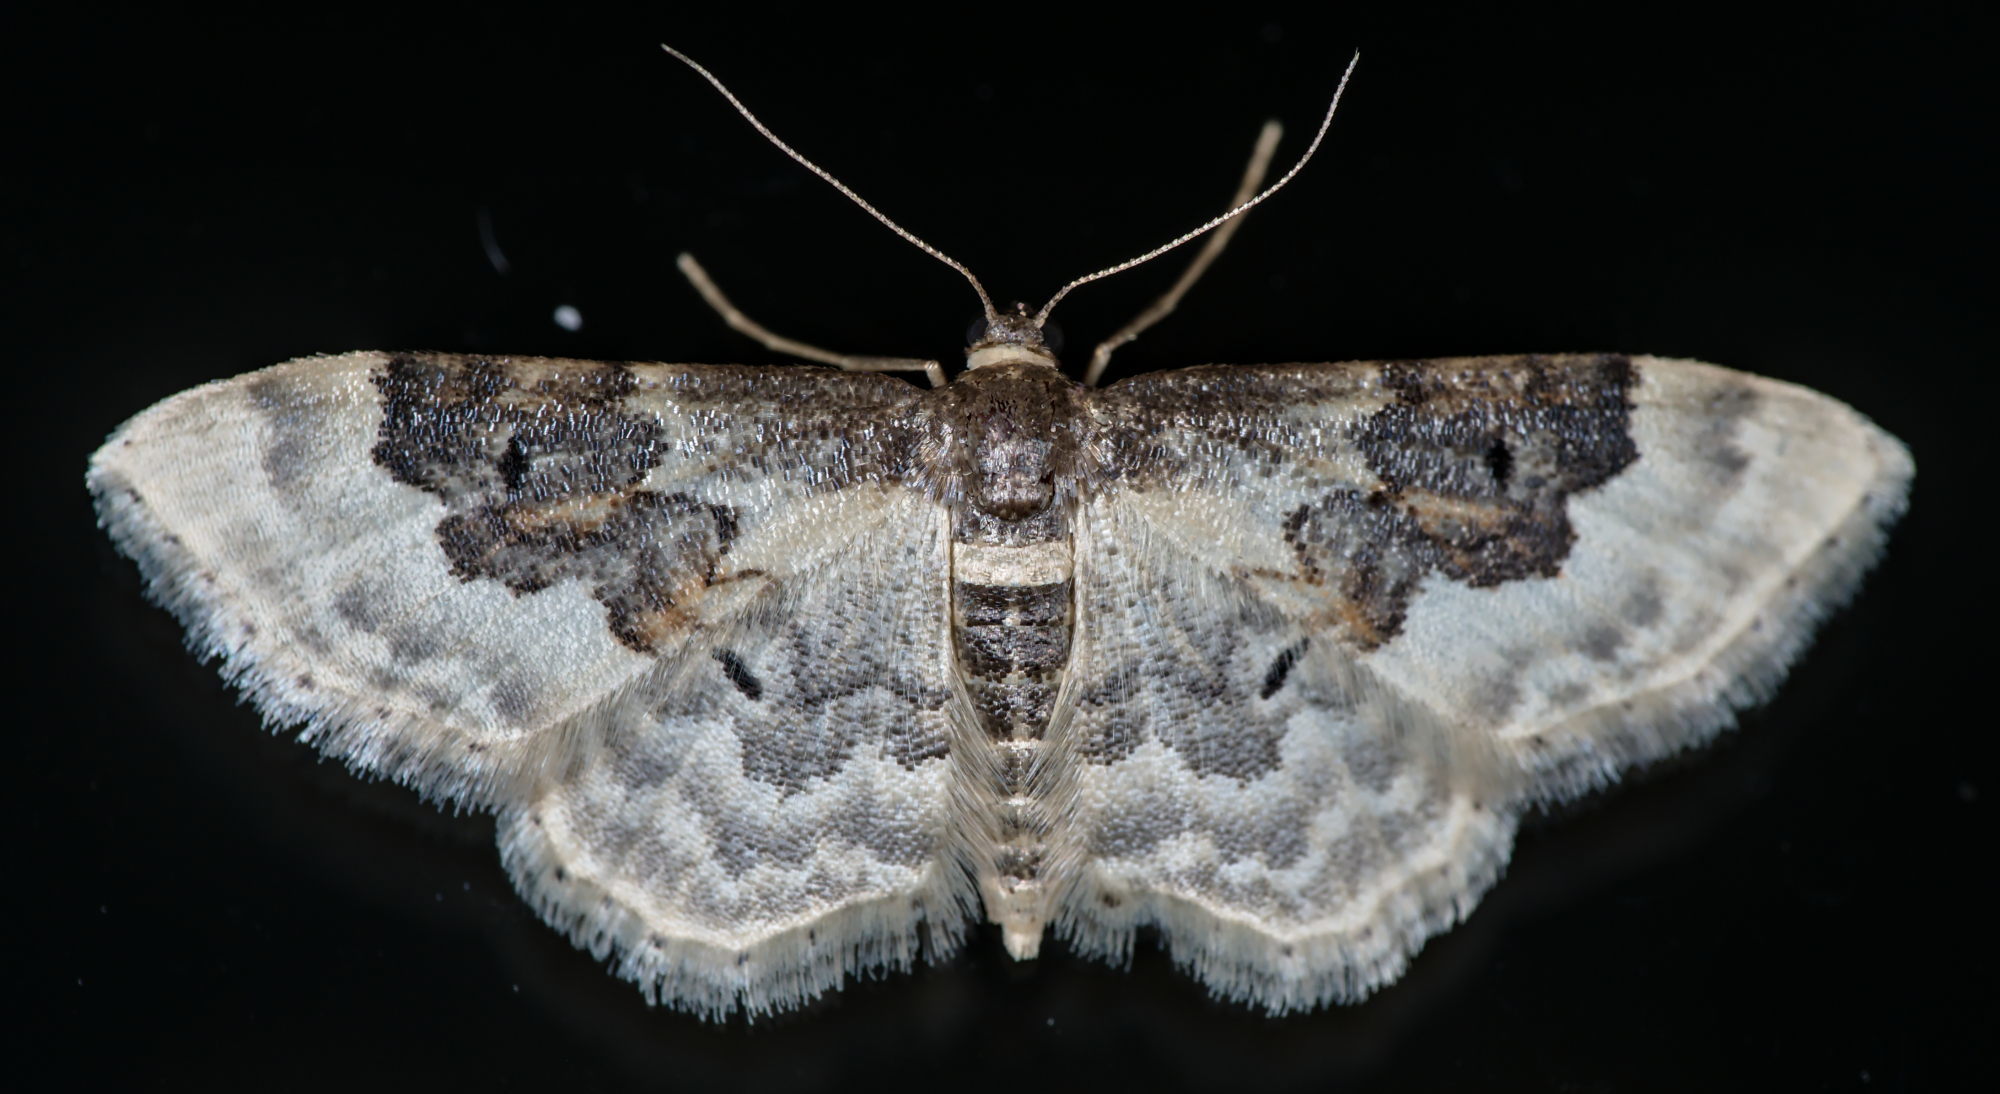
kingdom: Animalia
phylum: Arthropoda
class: Insecta
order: Lepidoptera
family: Geometridae
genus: Idaea
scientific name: Idaea rusticata
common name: Least carpet
